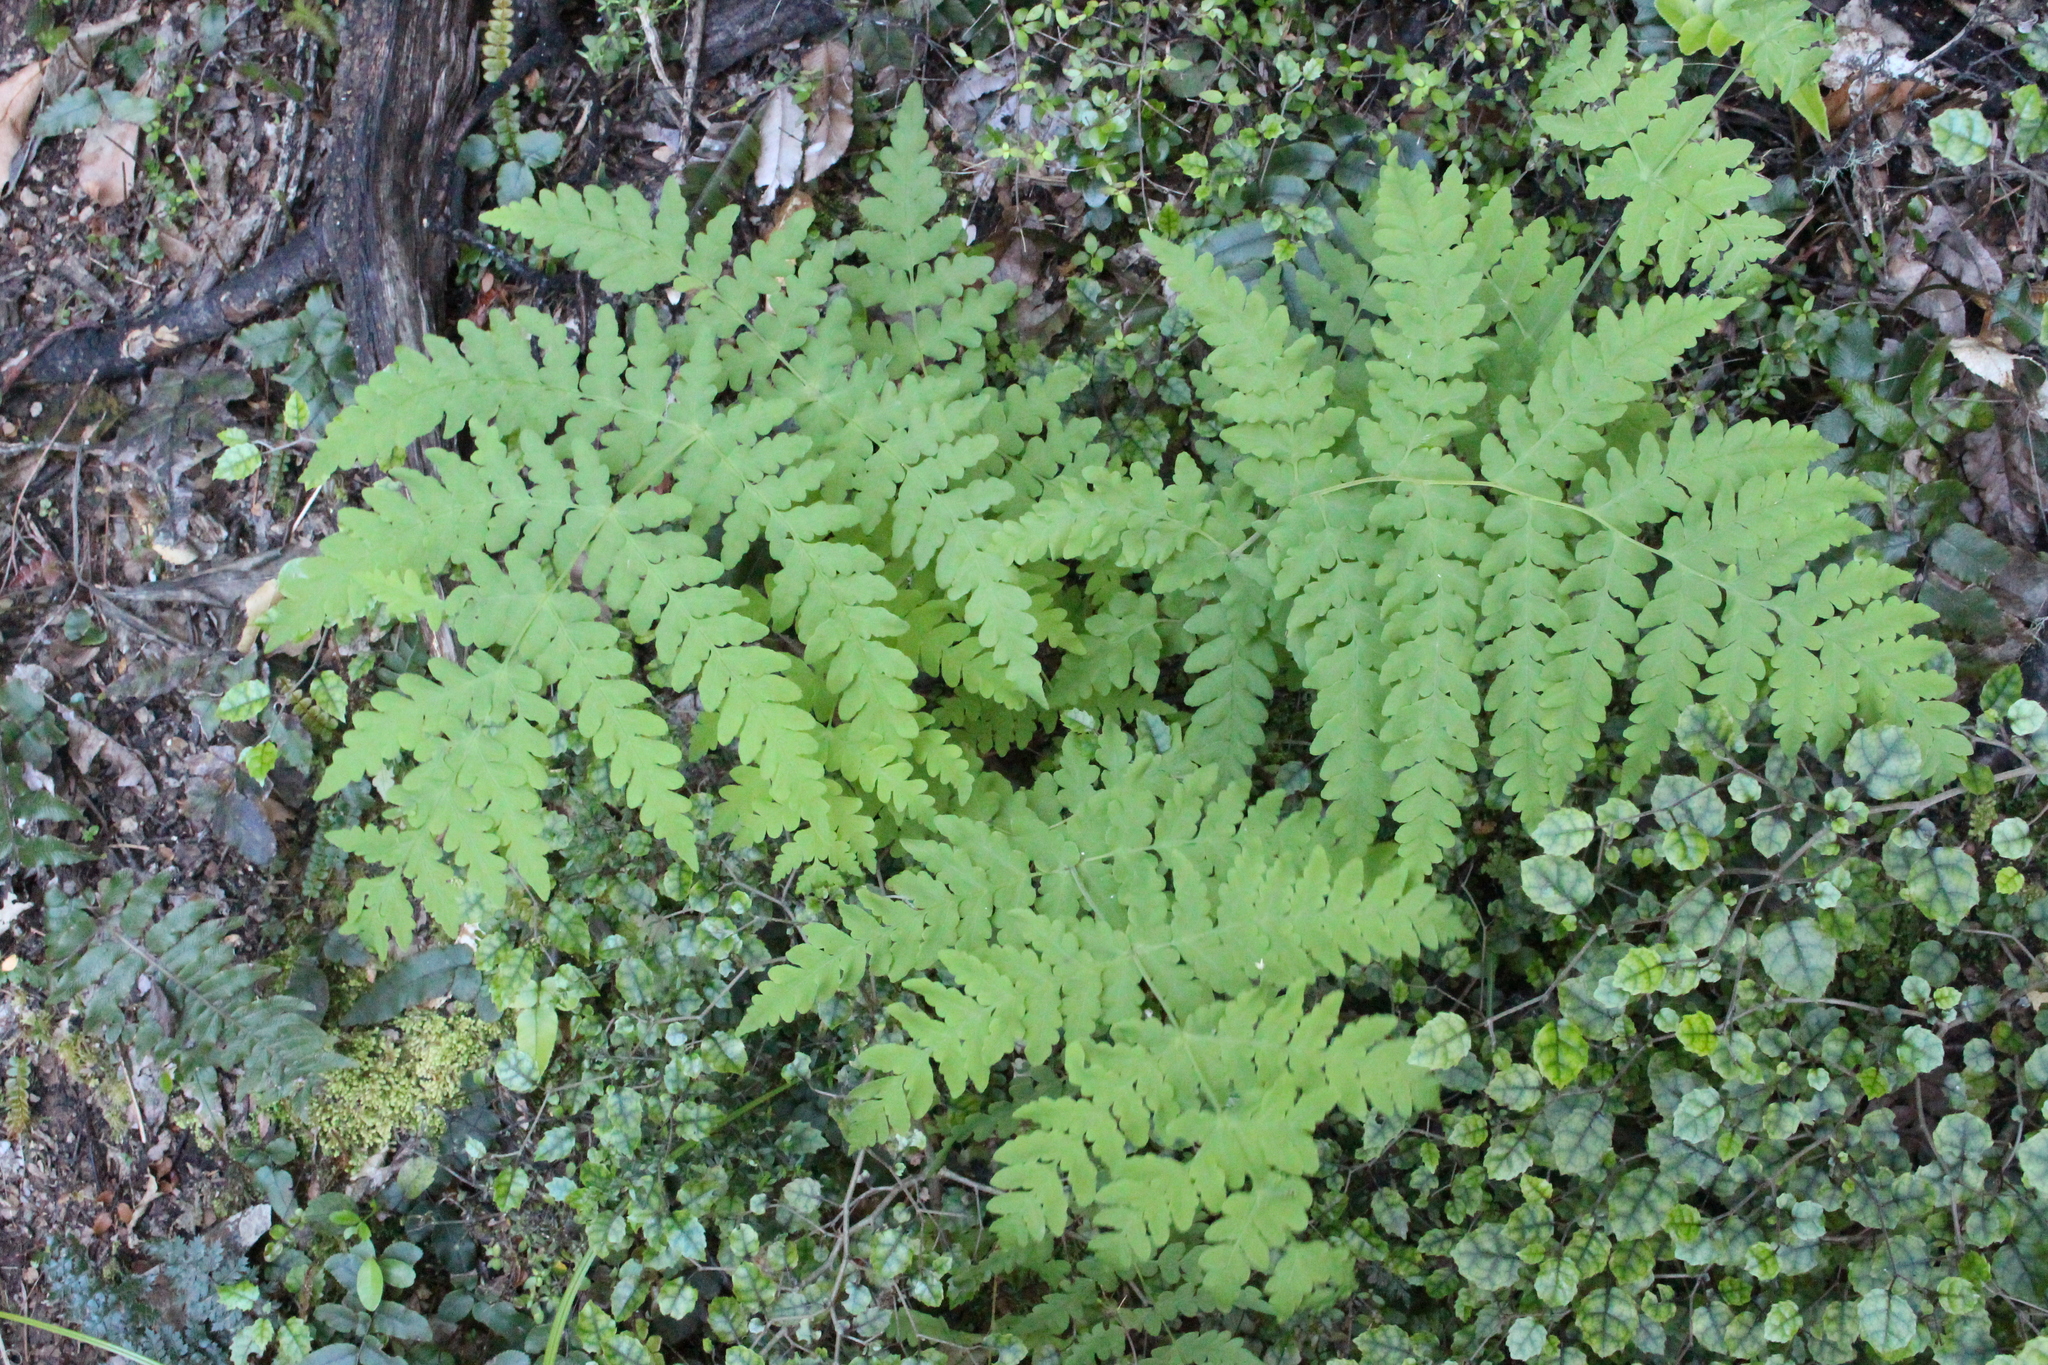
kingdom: Plantae
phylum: Tracheophyta
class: Polypodiopsida
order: Polypodiales
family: Dennstaedtiaceae
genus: Histiopteris
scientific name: Histiopteris incisa
